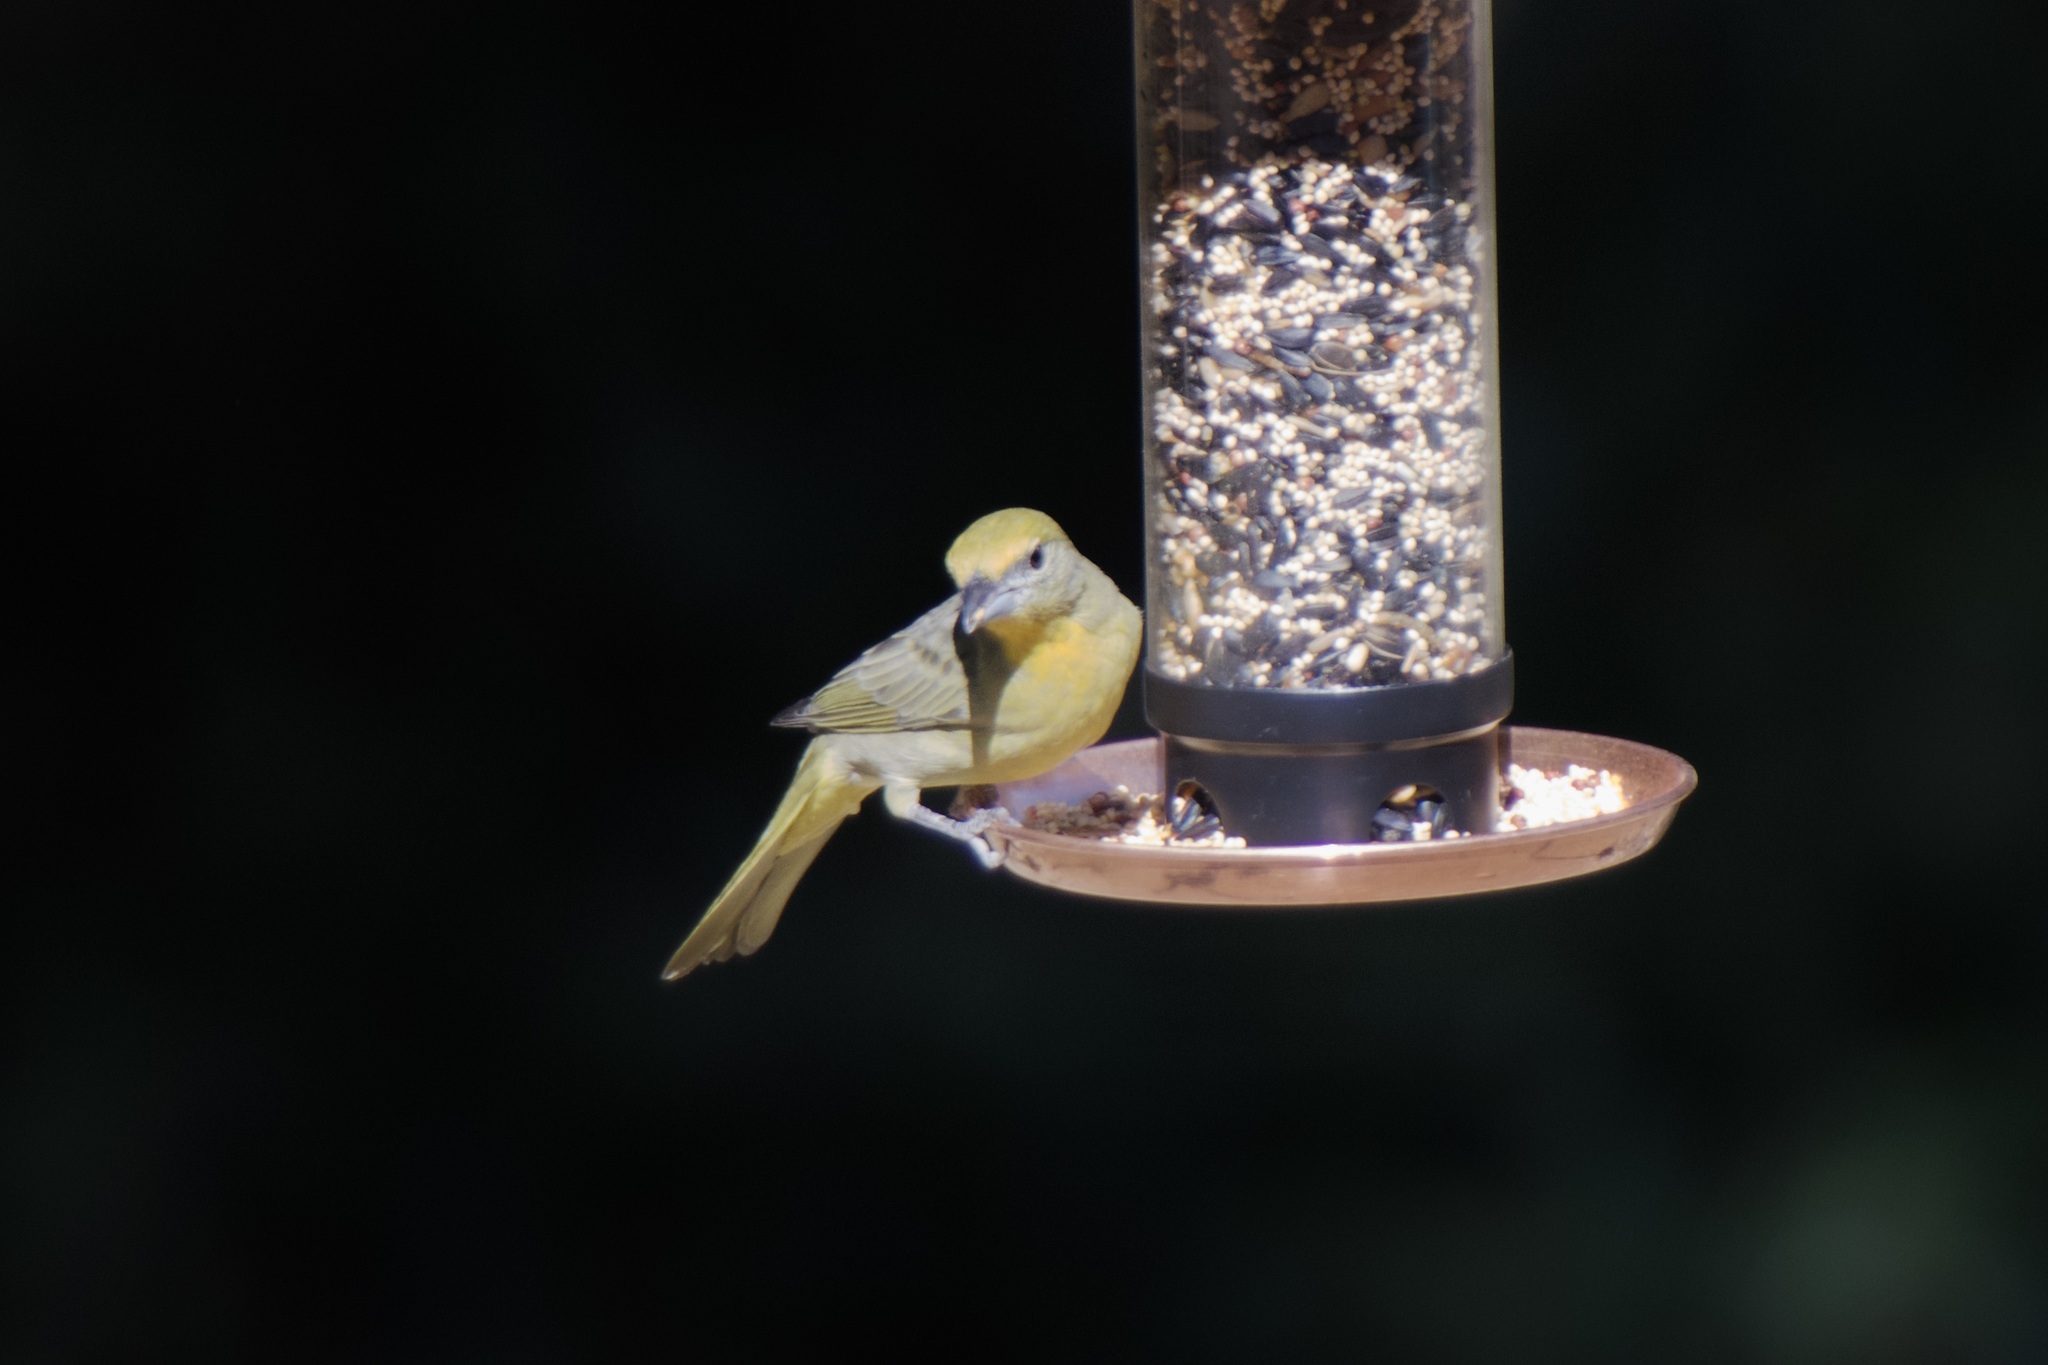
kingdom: Animalia
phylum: Chordata
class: Aves
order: Passeriformes
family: Cardinalidae
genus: Piranga
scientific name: Piranga flava
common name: Red tanager
